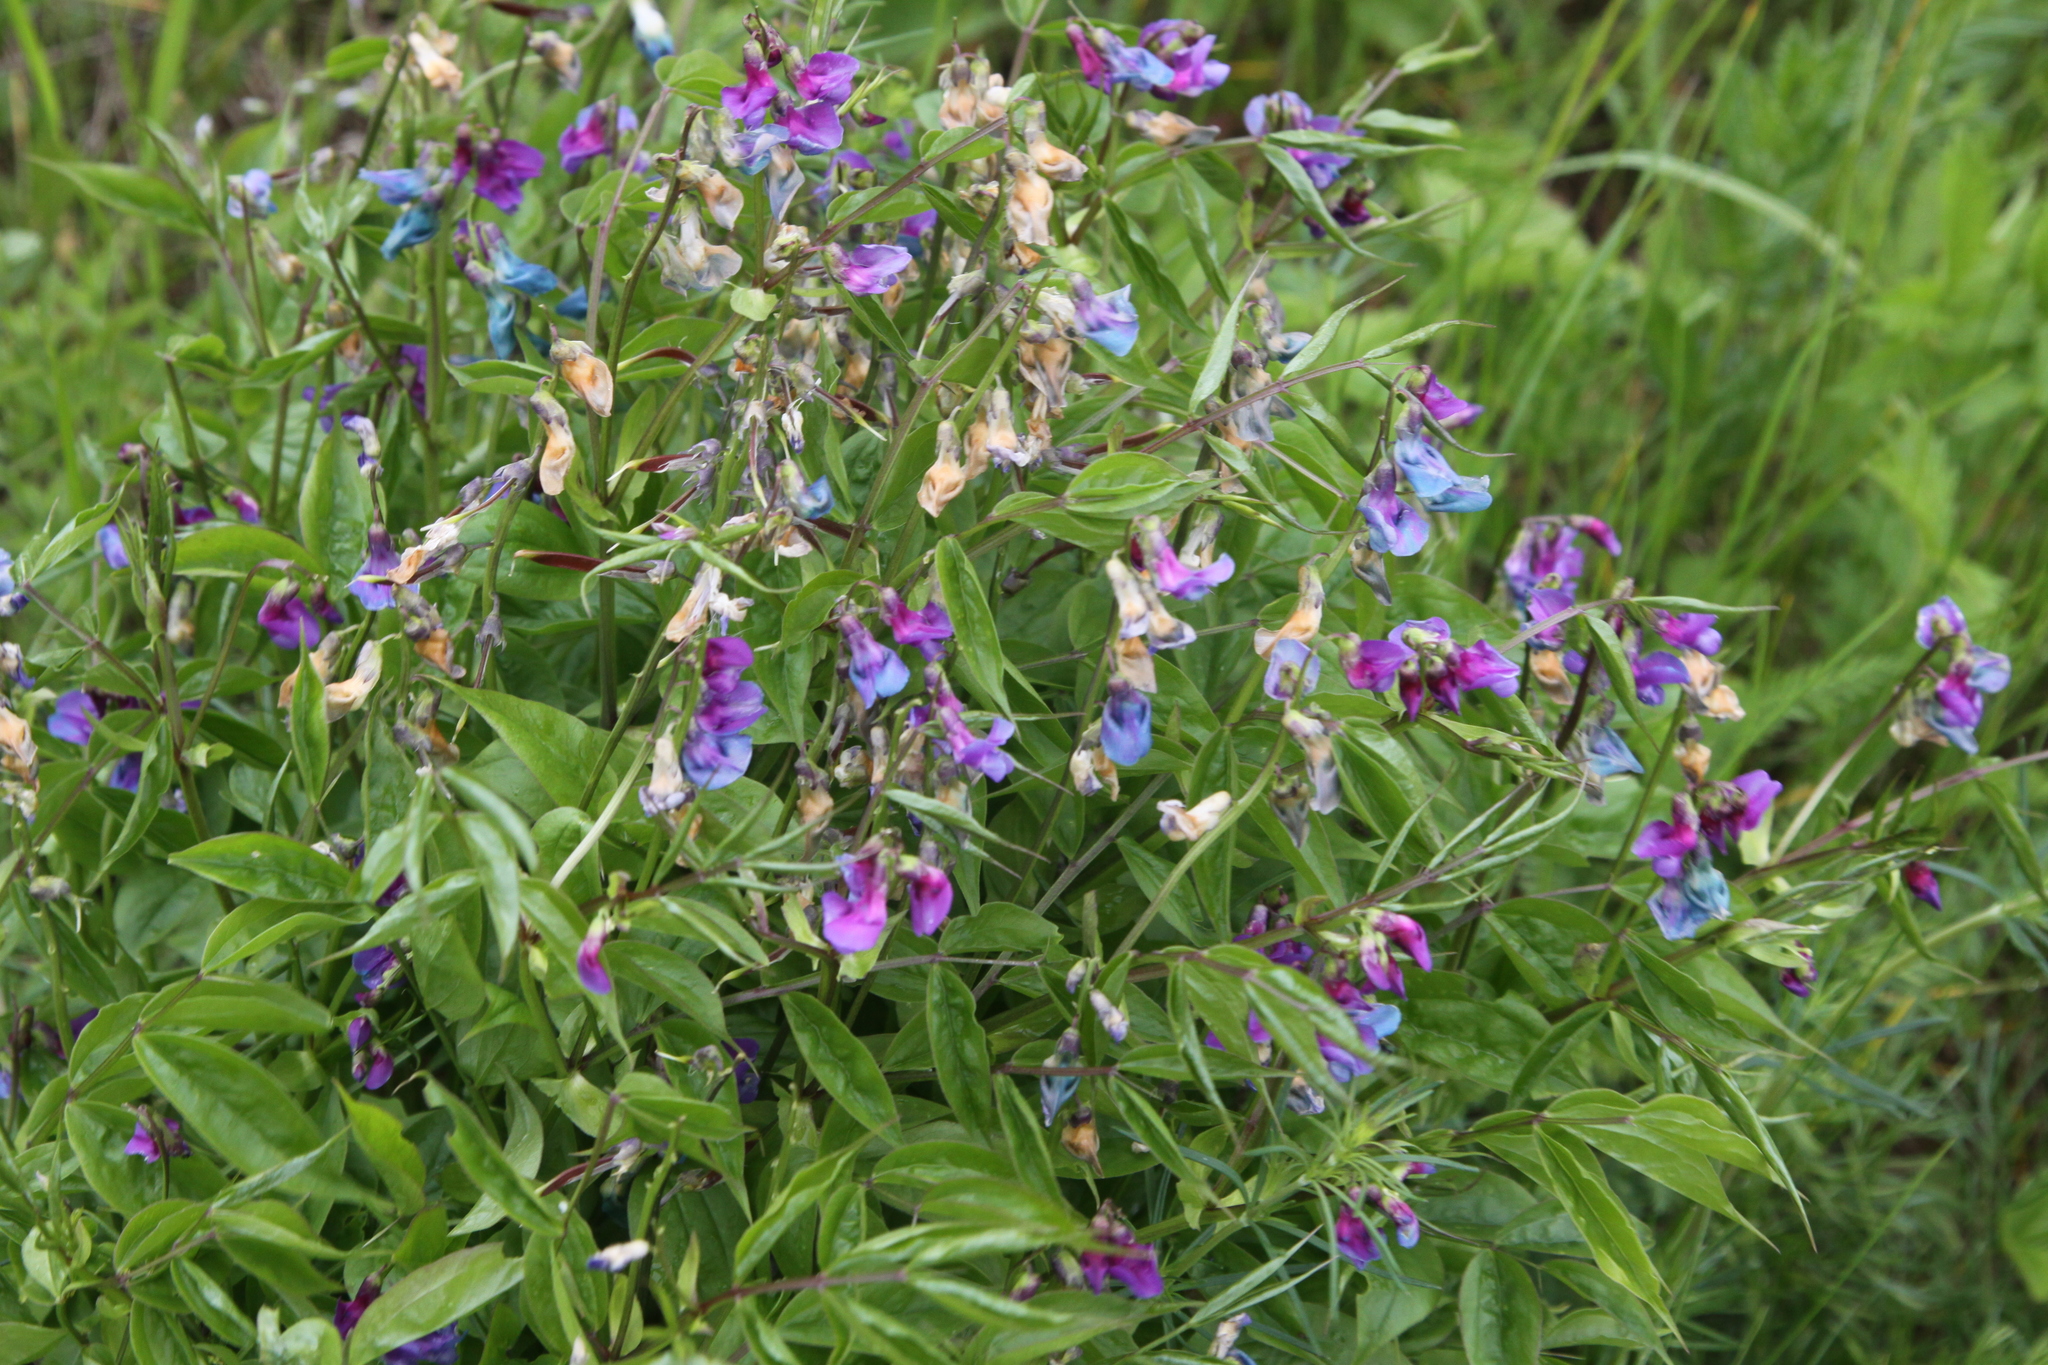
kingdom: Plantae
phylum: Tracheophyta
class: Magnoliopsida
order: Fabales
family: Fabaceae
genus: Lathyrus
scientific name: Lathyrus vernus
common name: Spring pea
